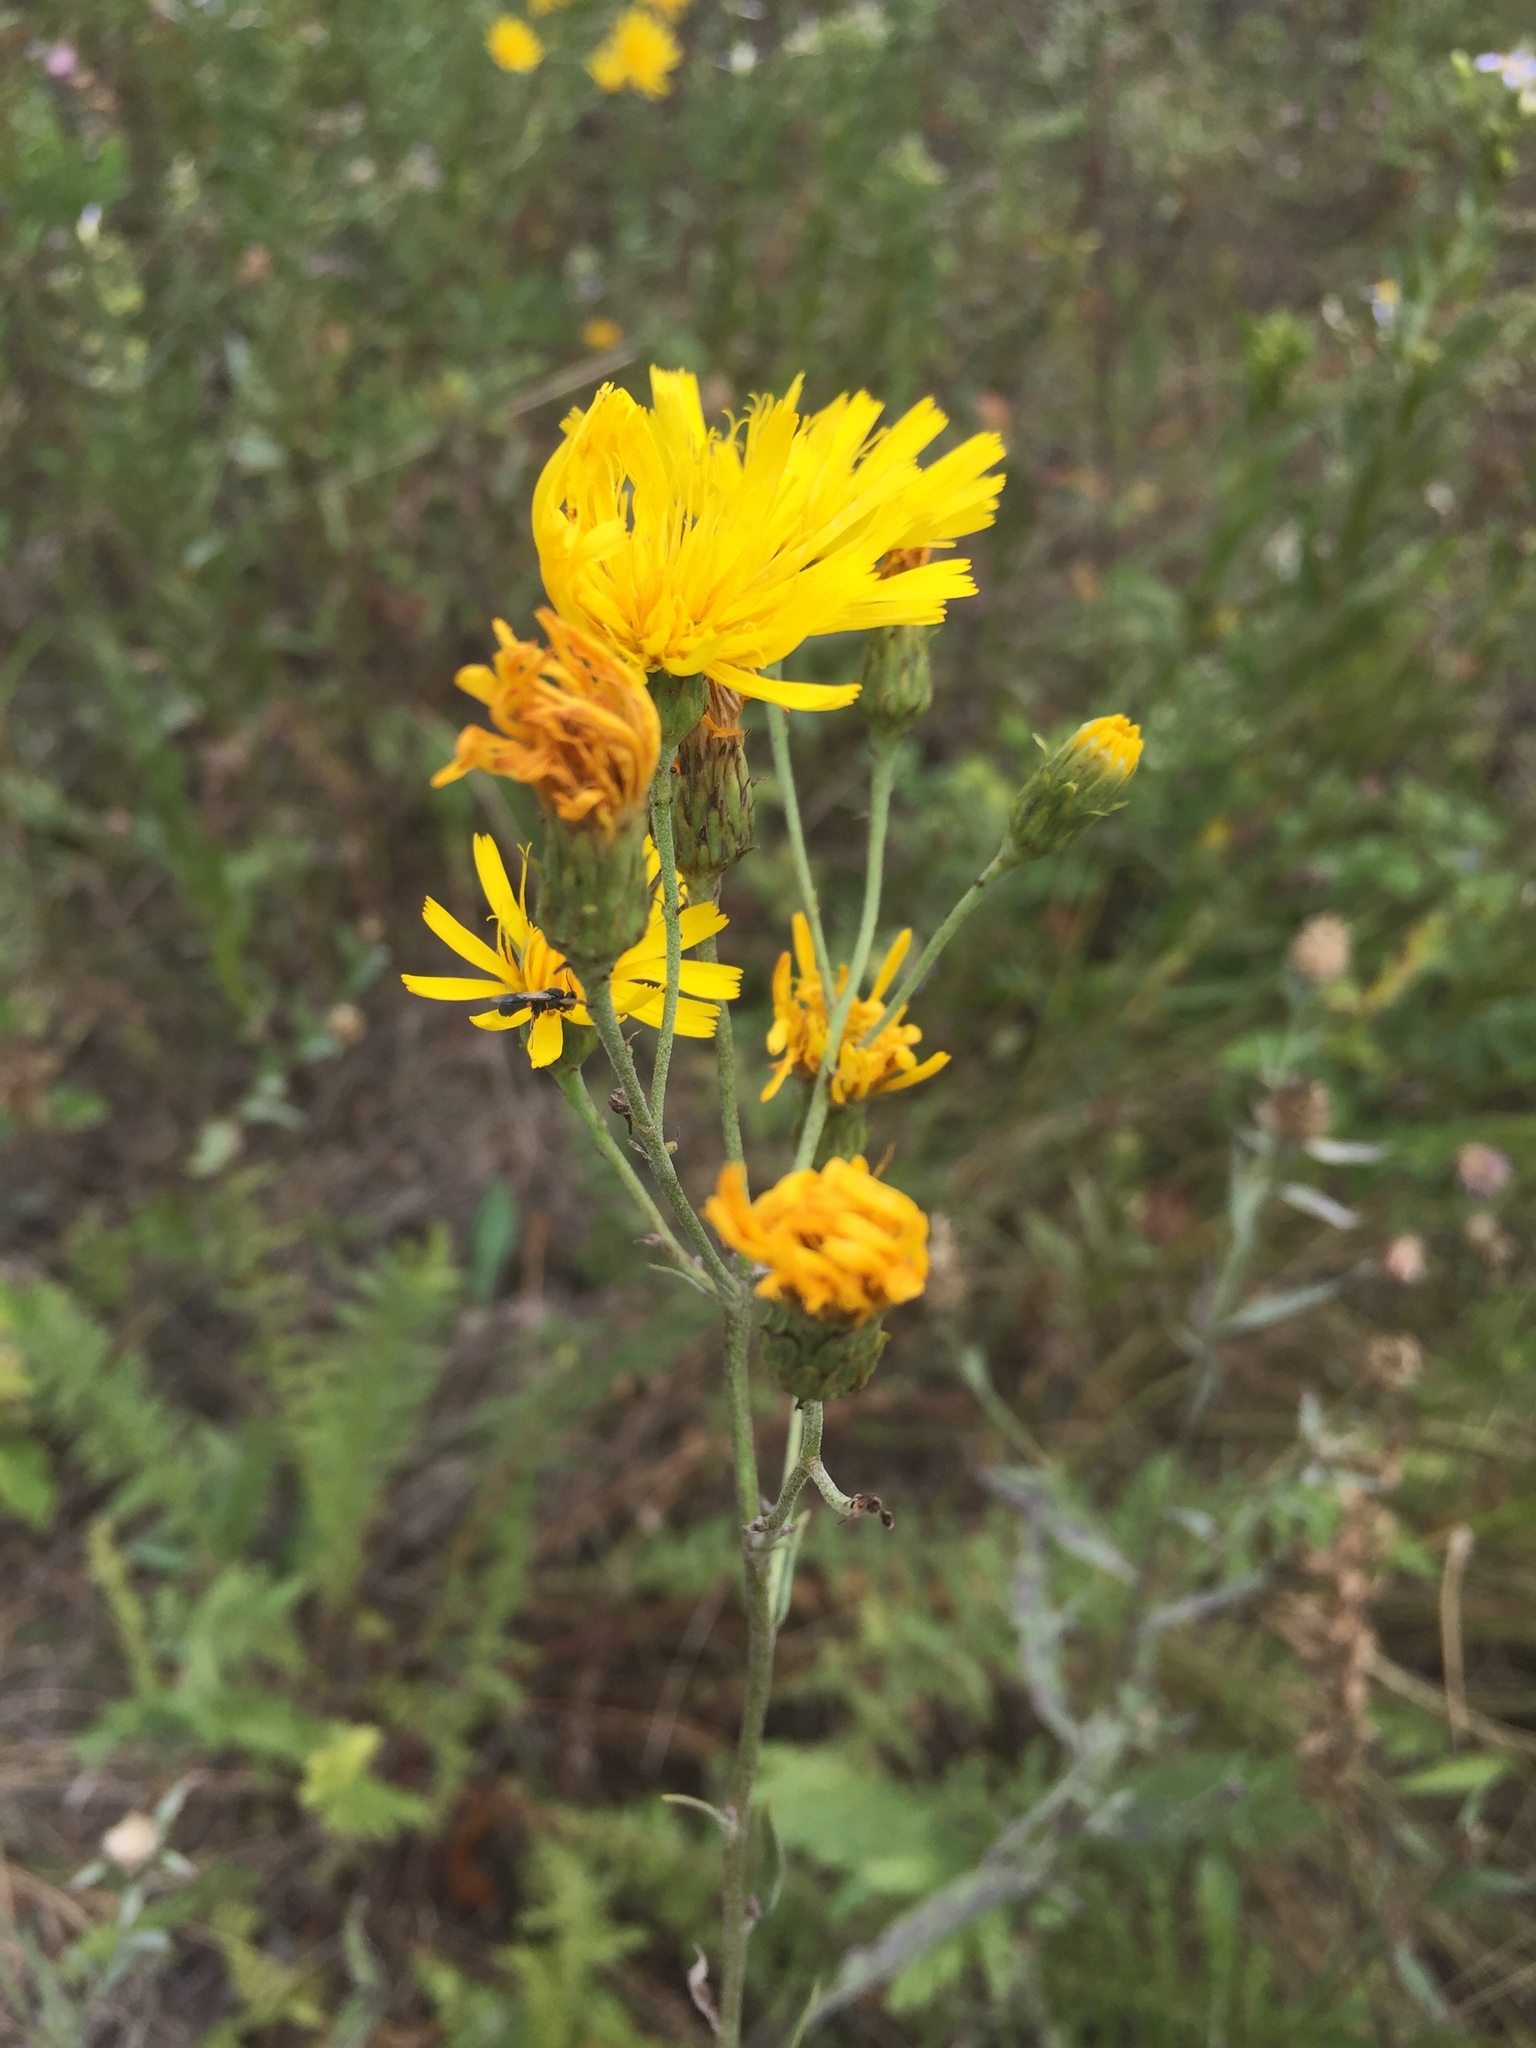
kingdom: Plantae
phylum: Tracheophyta
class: Magnoliopsida
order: Asterales
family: Asteraceae
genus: Hieracium
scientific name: Hieracium umbellatum
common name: Northern hawkweed
